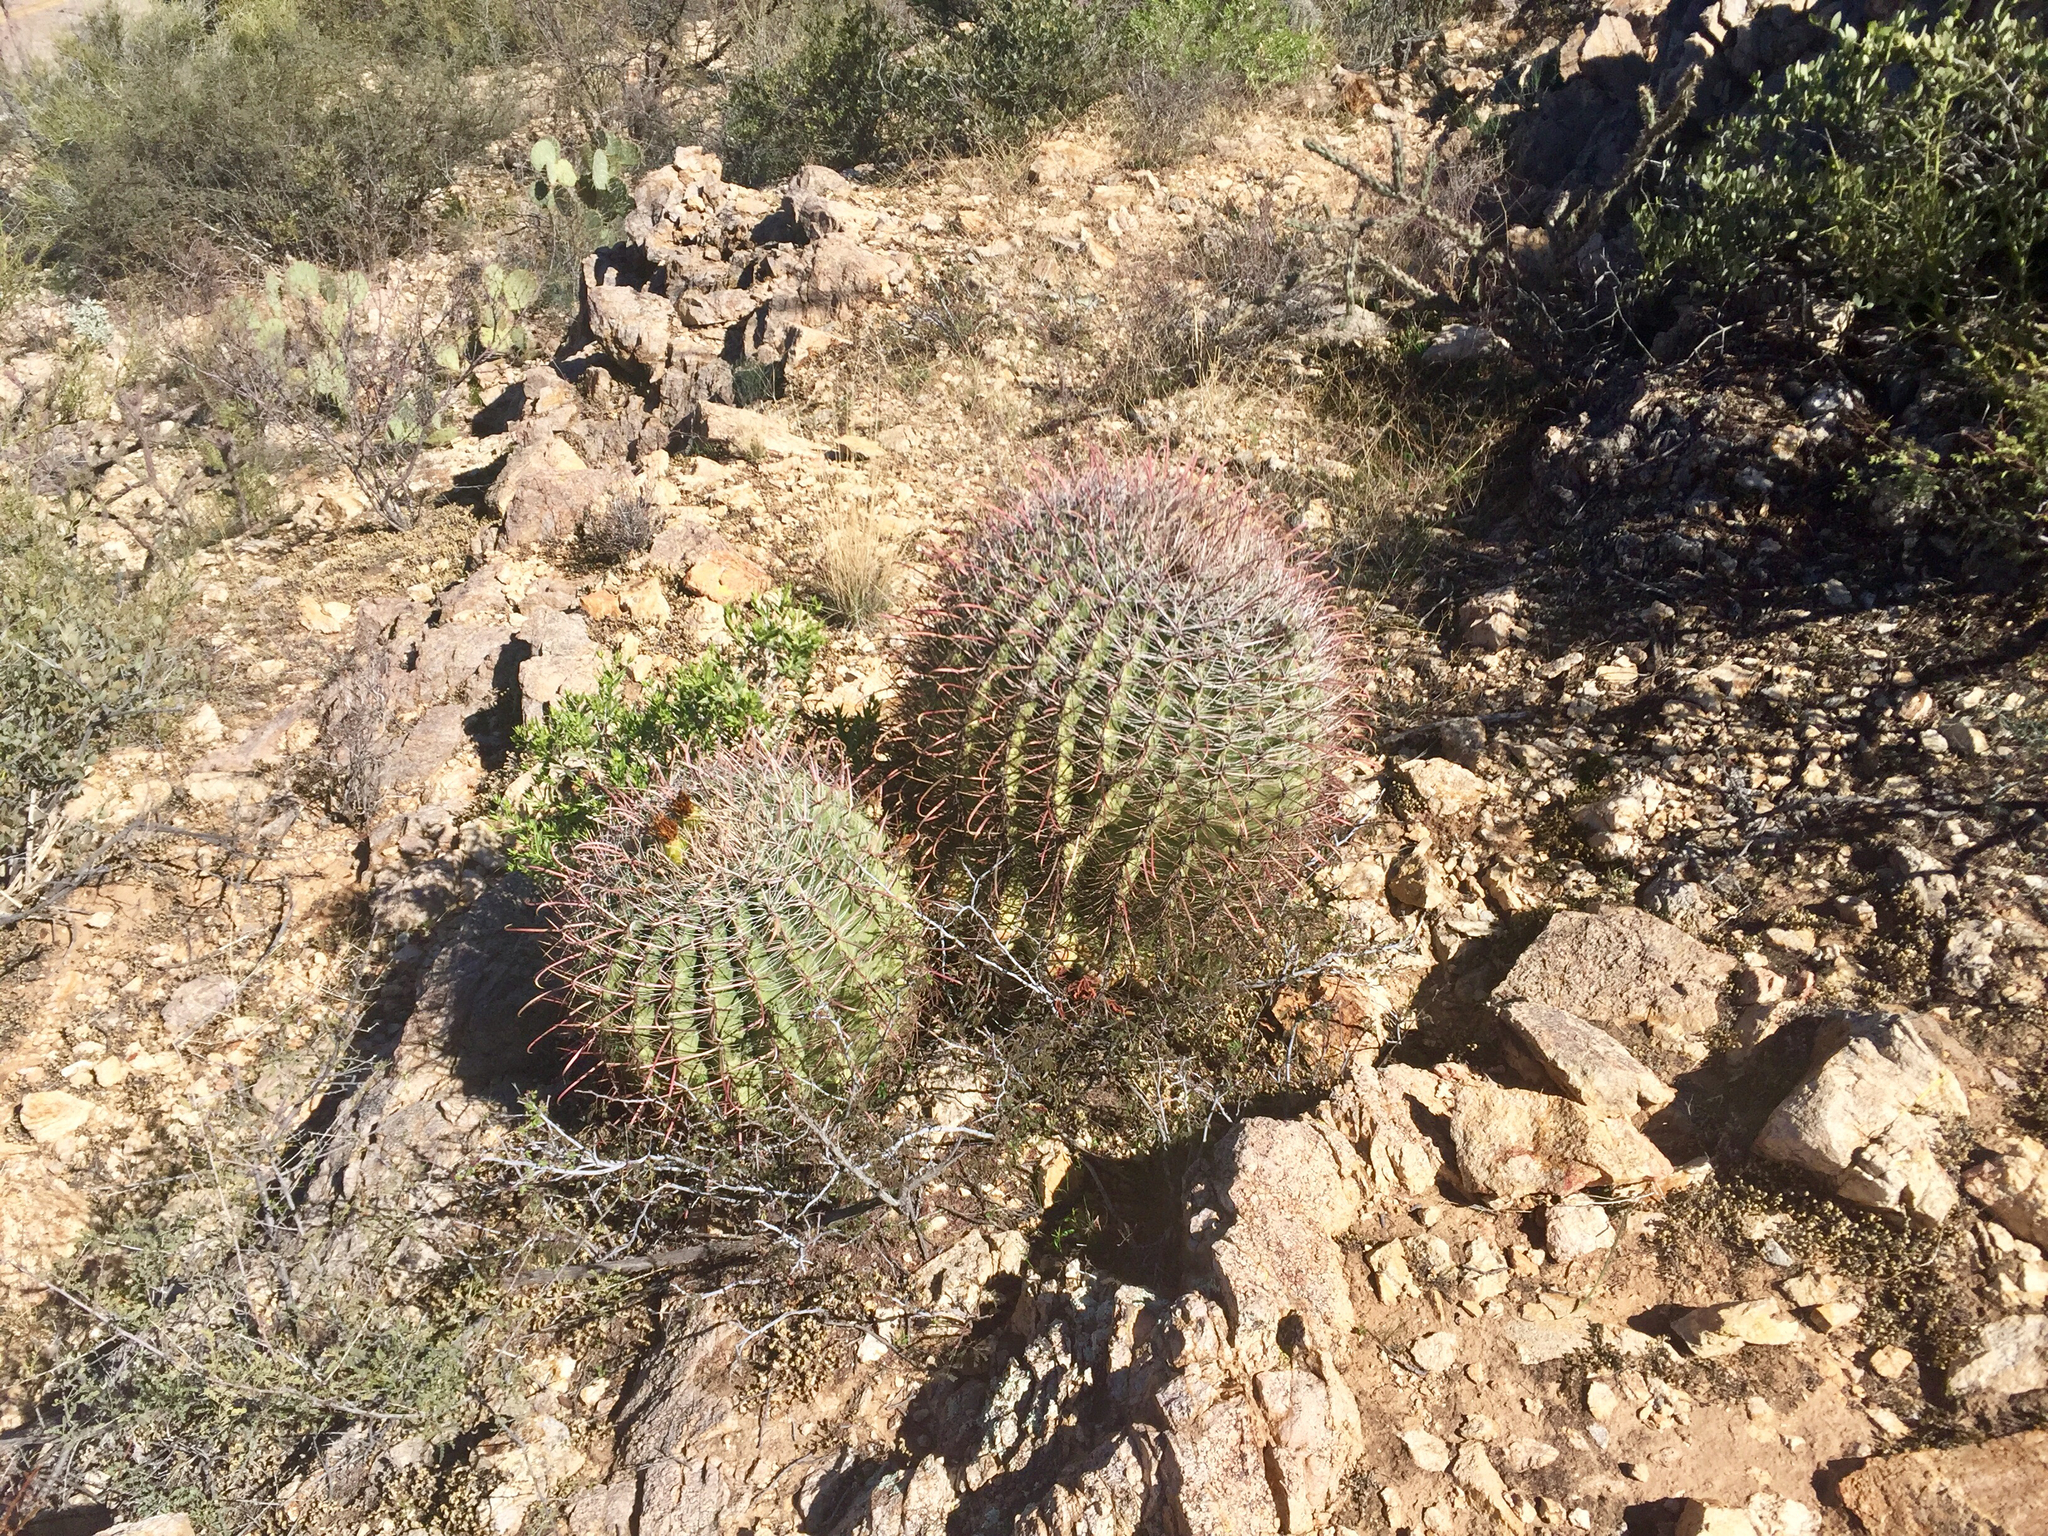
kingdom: Plantae
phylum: Tracheophyta
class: Magnoliopsida
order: Caryophyllales
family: Cactaceae
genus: Ferocactus
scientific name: Ferocactus wislizeni
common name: Candy barrel cactus
